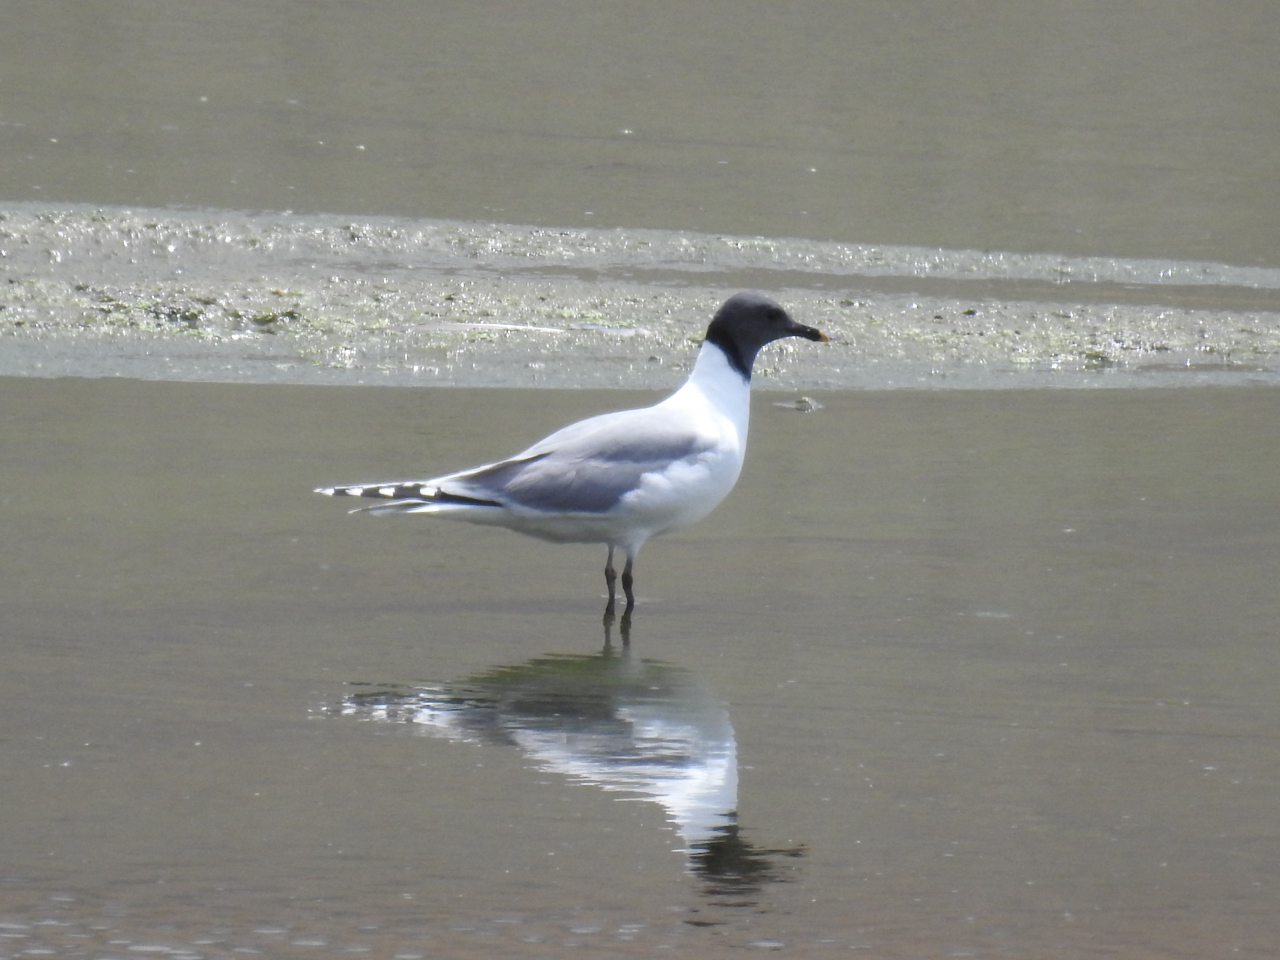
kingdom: Animalia
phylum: Chordata
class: Aves
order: Charadriiformes
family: Laridae
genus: Xema
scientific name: Xema sabini
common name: Sabine's gull
